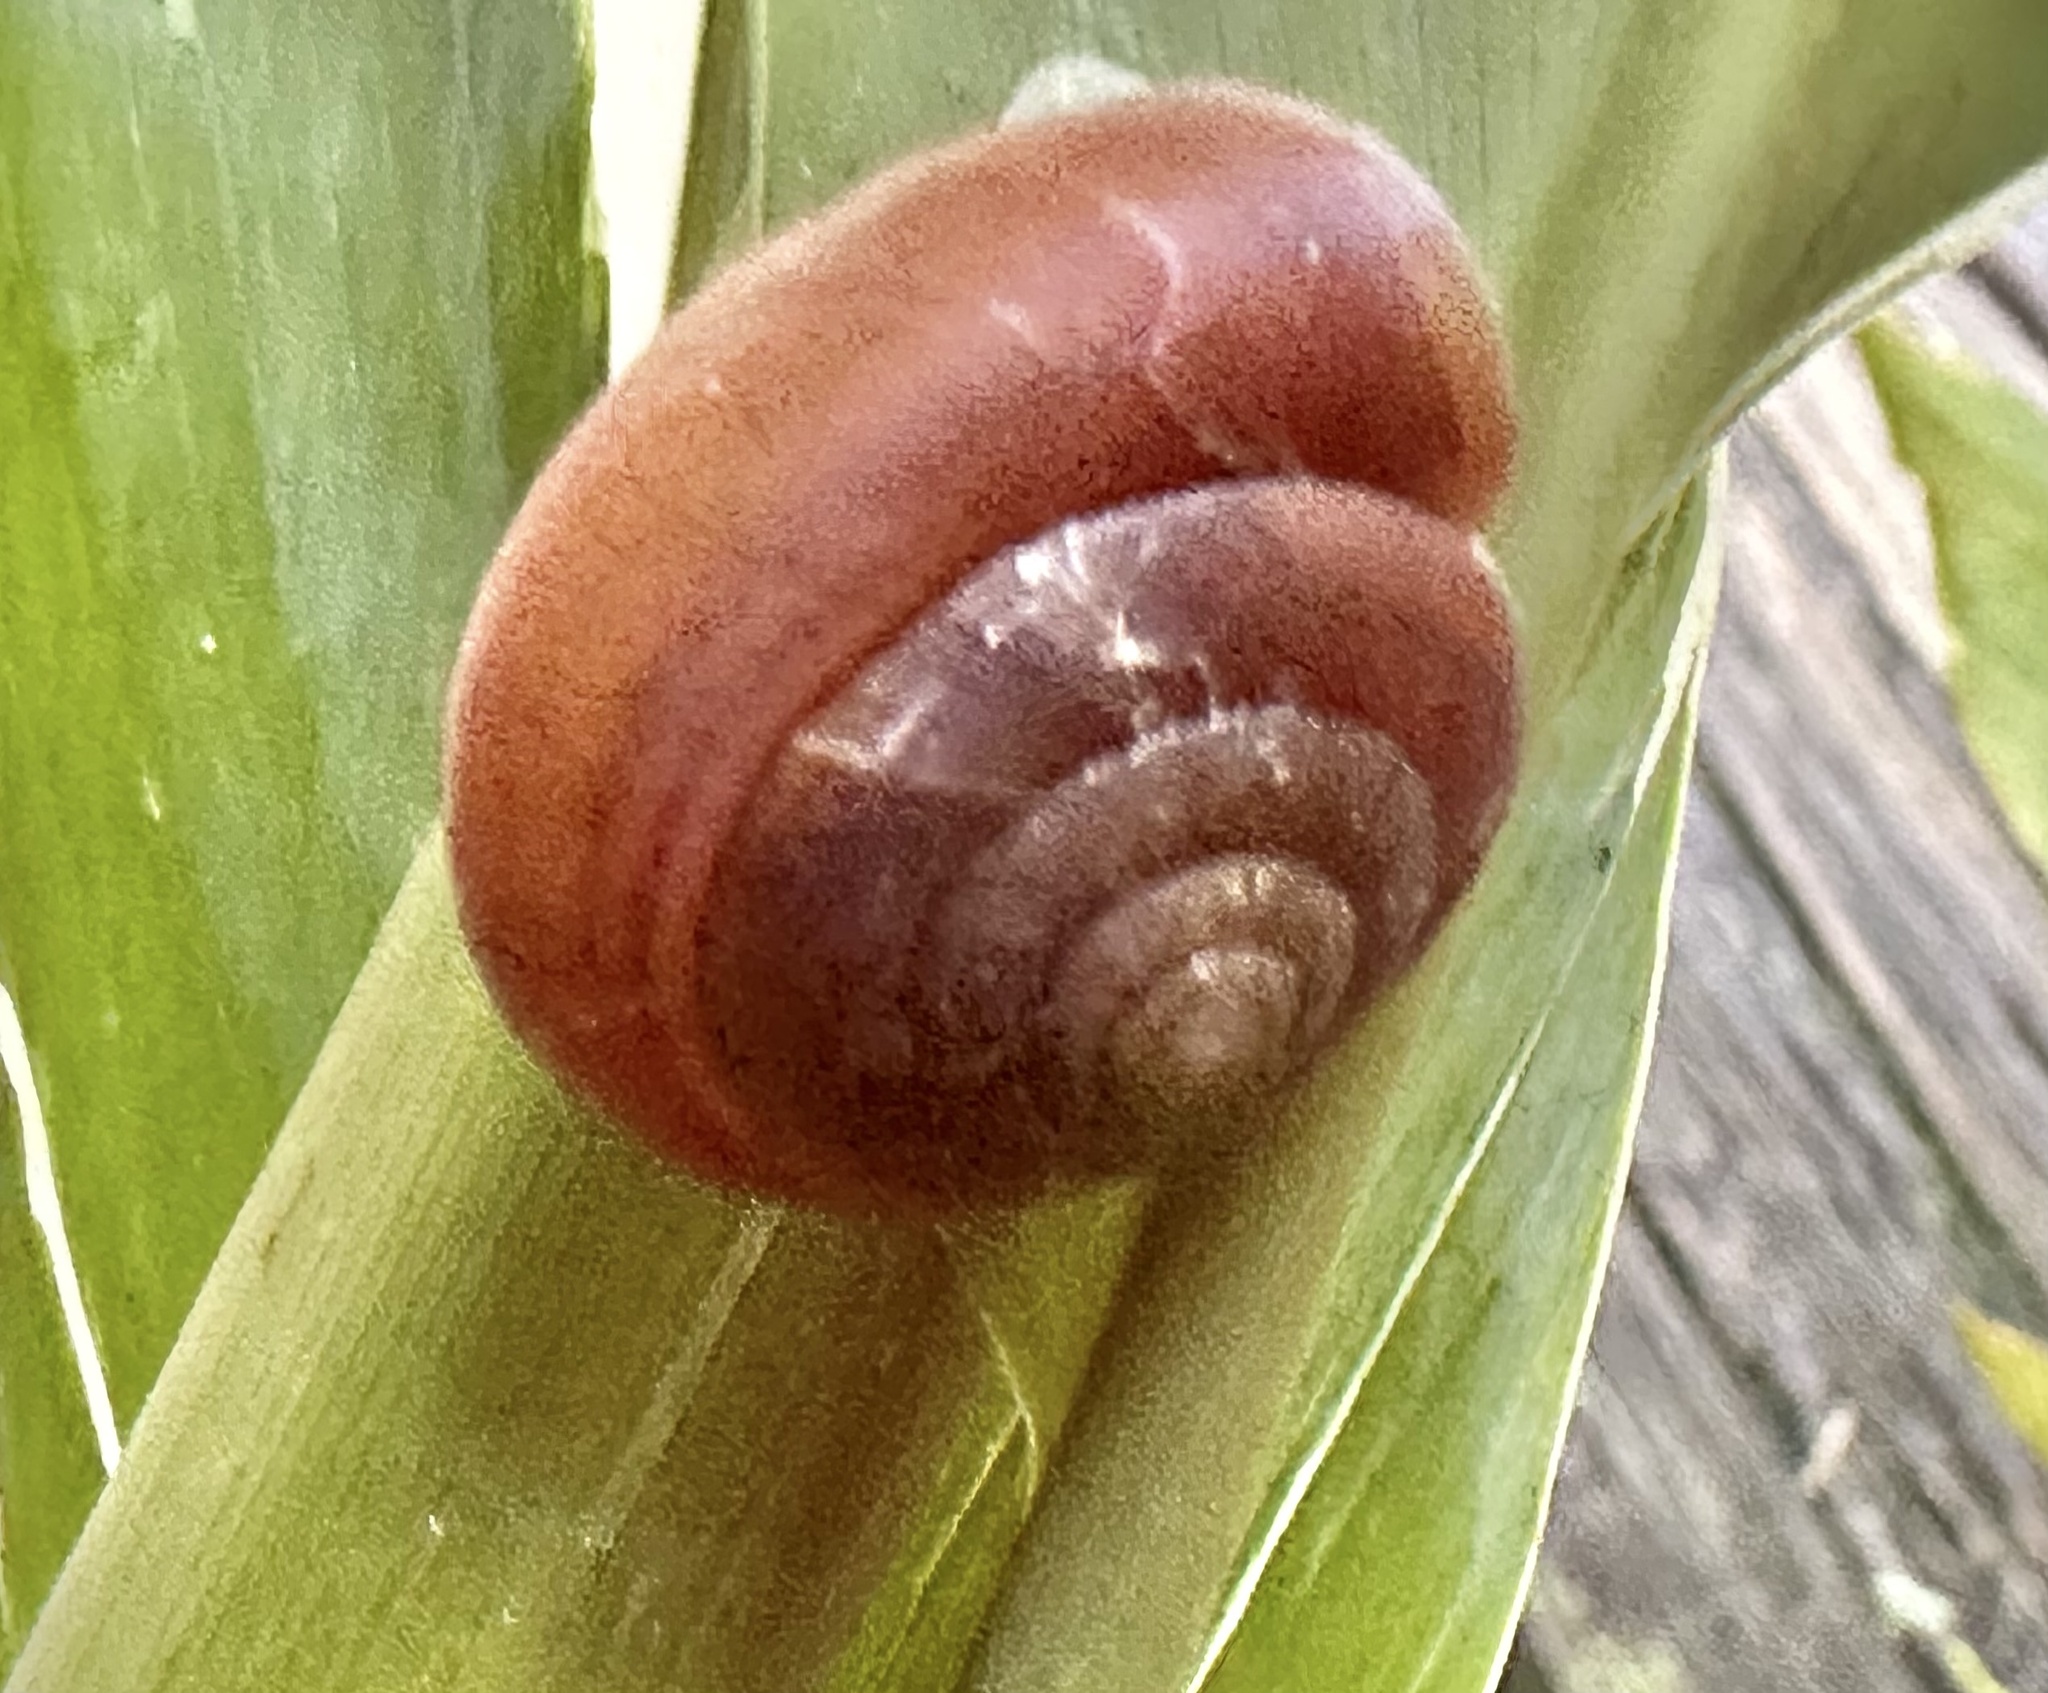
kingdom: Animalia
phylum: Mollusca
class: Gastropoda
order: Stylommatophora
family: Dyakiidae
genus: Quantula
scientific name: Quantula striata
